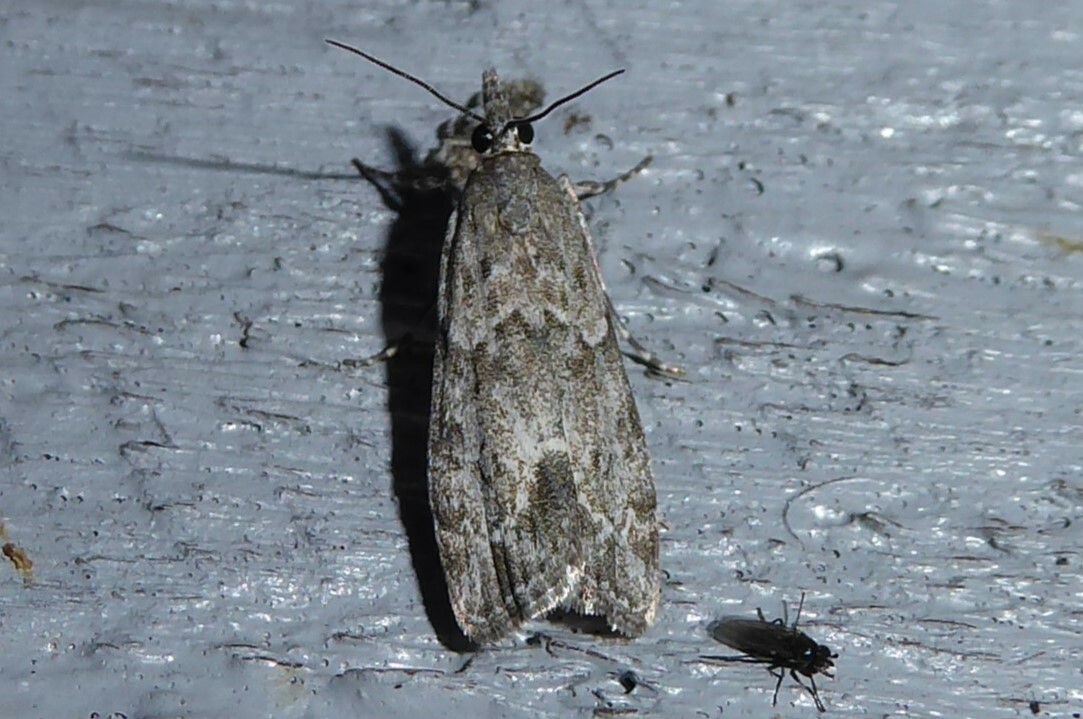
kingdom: Animalia
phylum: Arthropoda
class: Insecta
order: Lepidoptera
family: Crambidae
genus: Eudonia
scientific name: Eudonia rakaiensis
